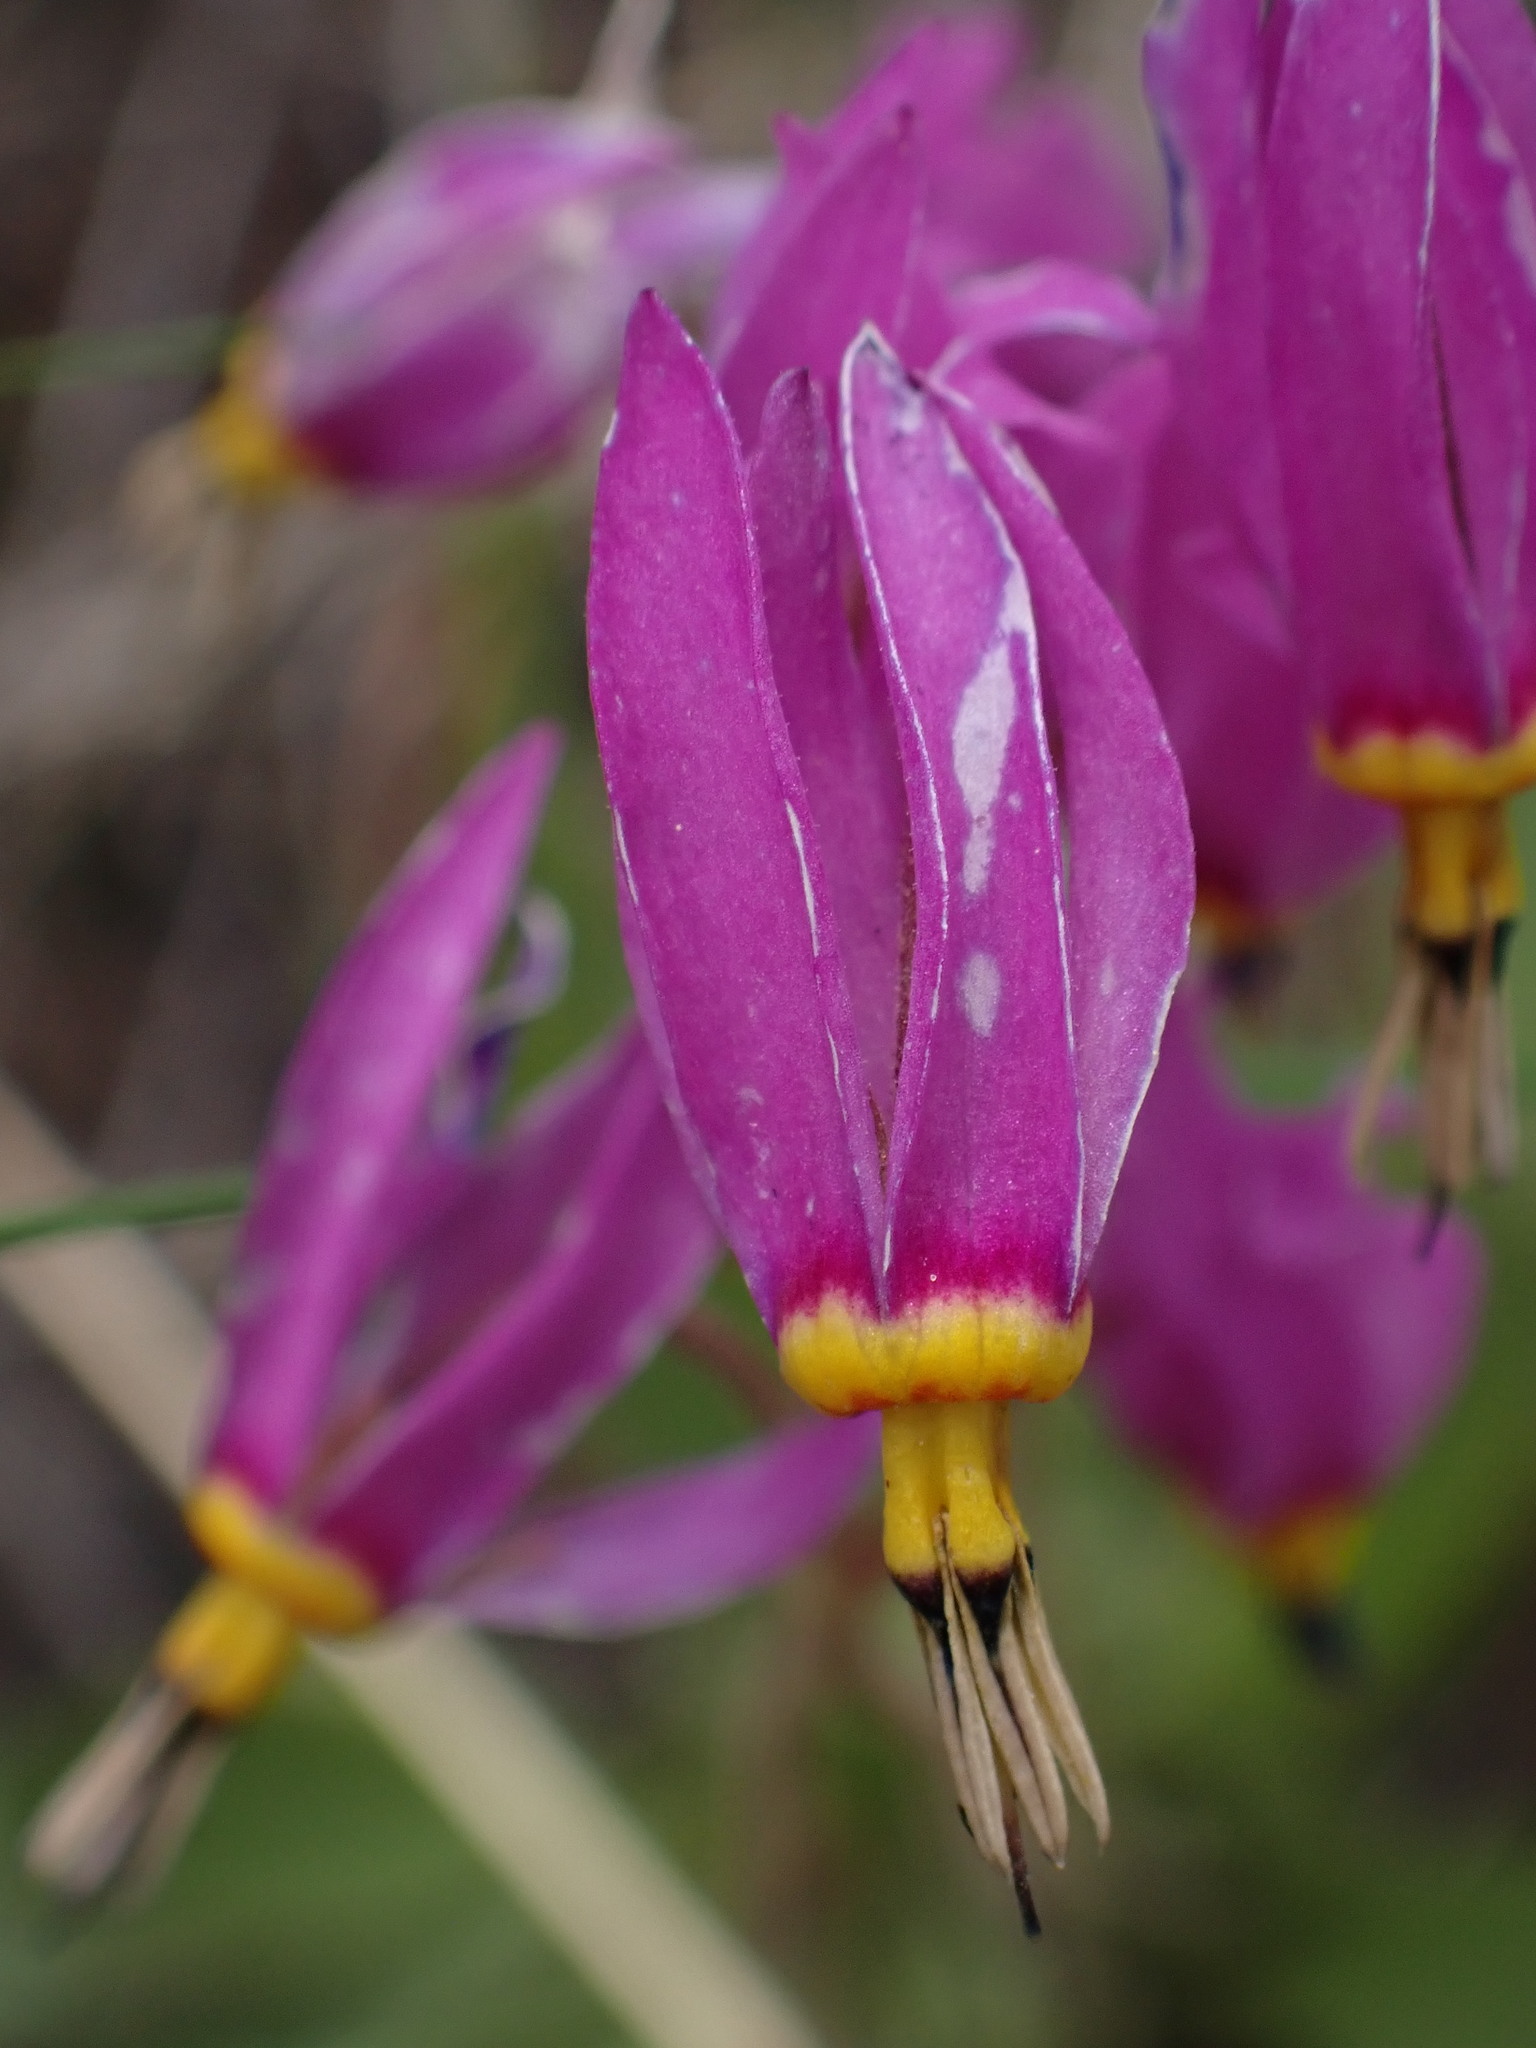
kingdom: Plantae
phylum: Tracheophyta
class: Magnoliopsida
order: Ericales
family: Primulaceae
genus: Dodecatheon
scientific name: Dodecatheon pulchellum
